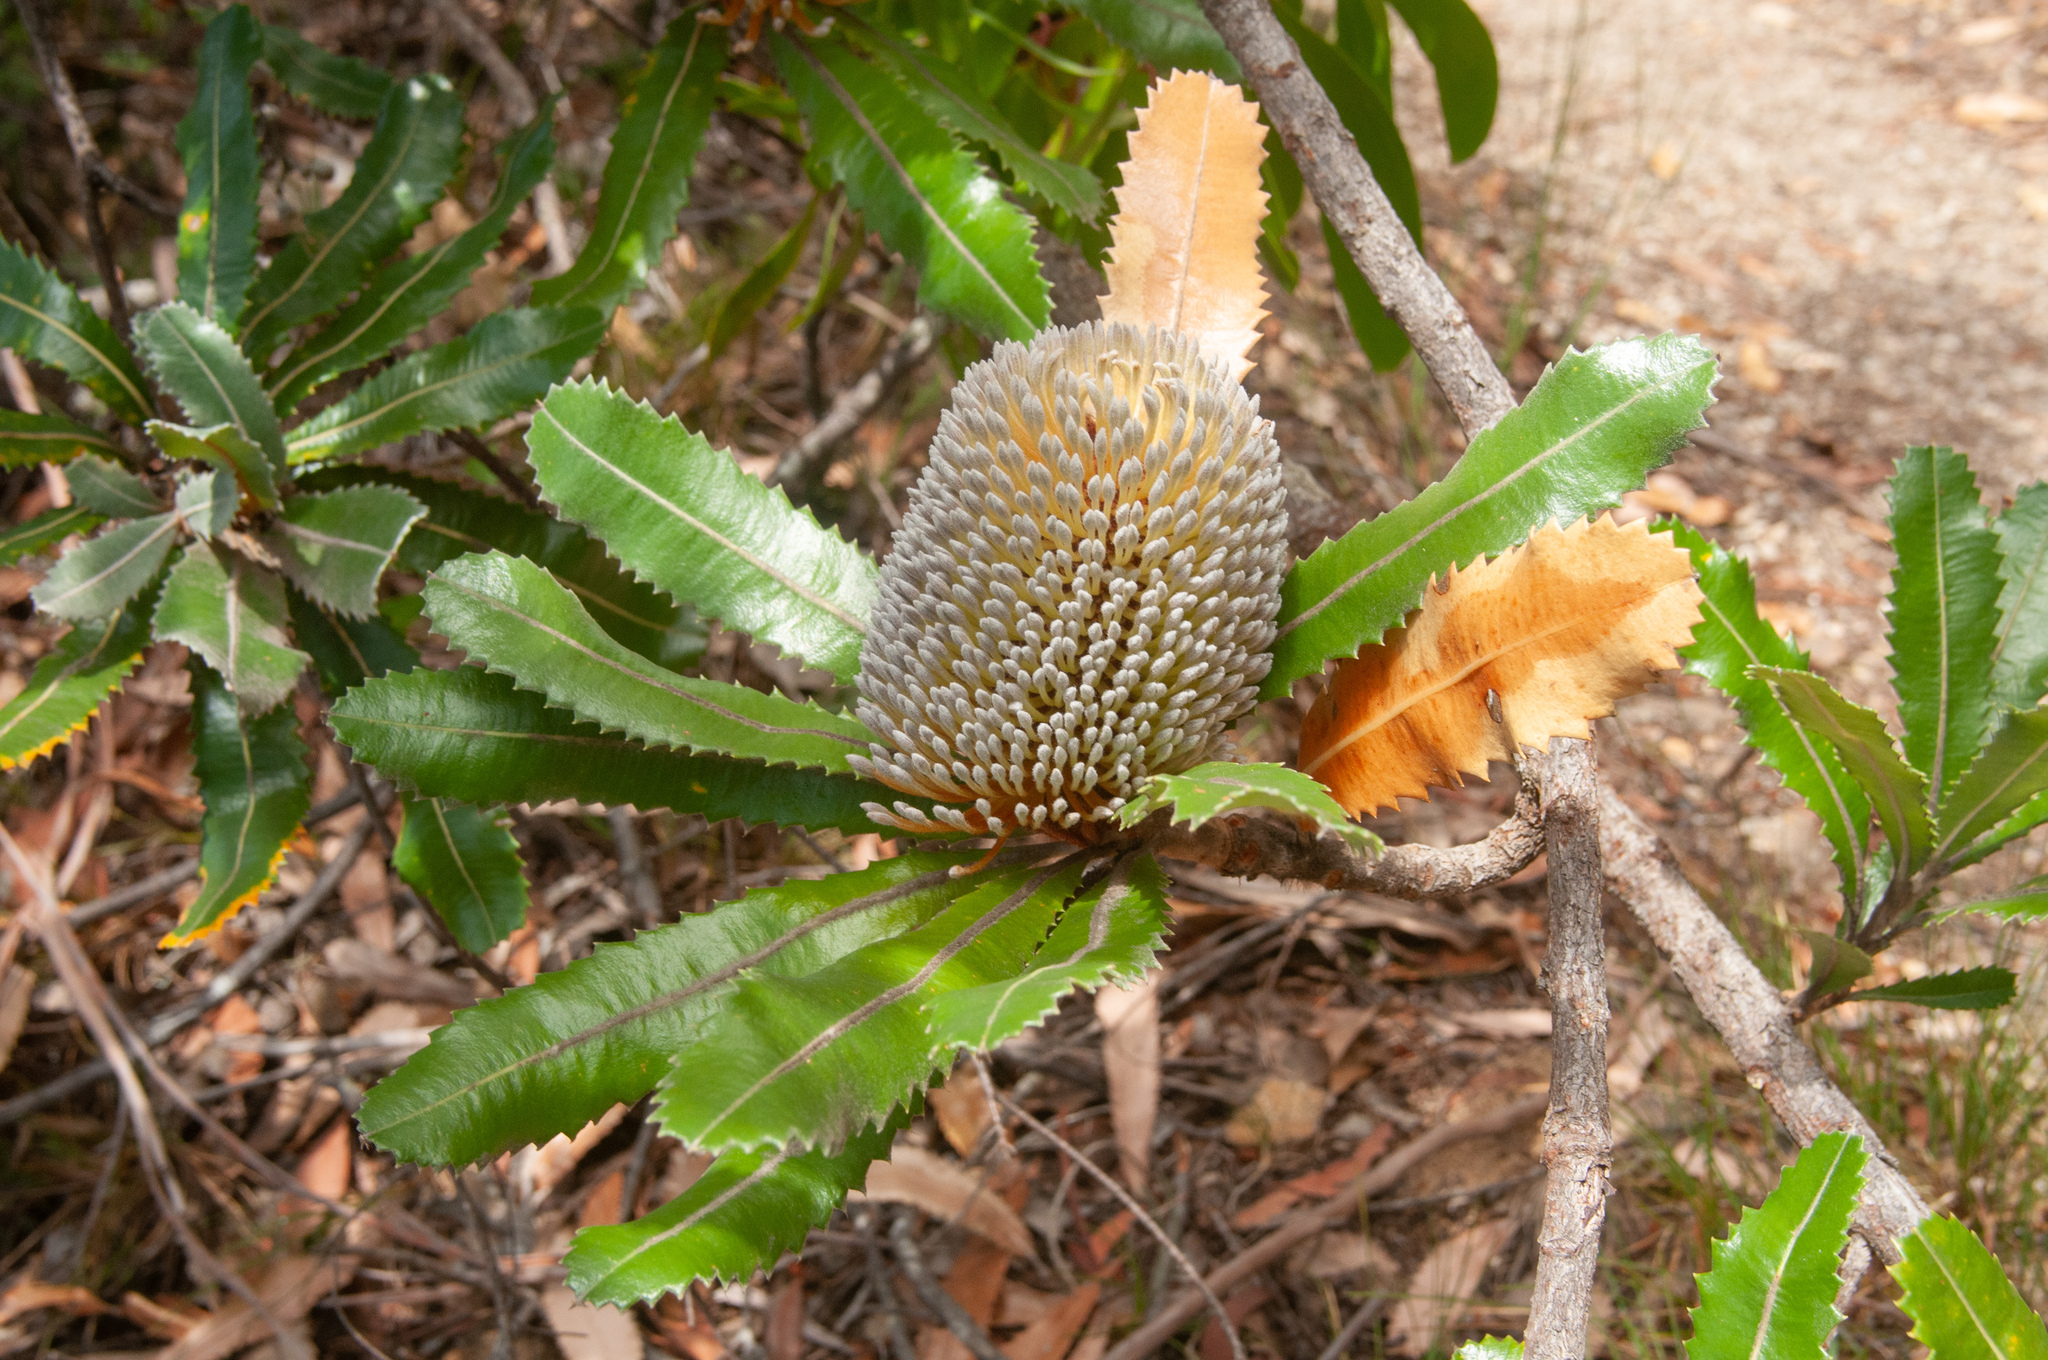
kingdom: Plantae
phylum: Tracheophyta
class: Magnoliopsida
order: Proteales
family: Proteaceae
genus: Banksia
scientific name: Banksia serrata
